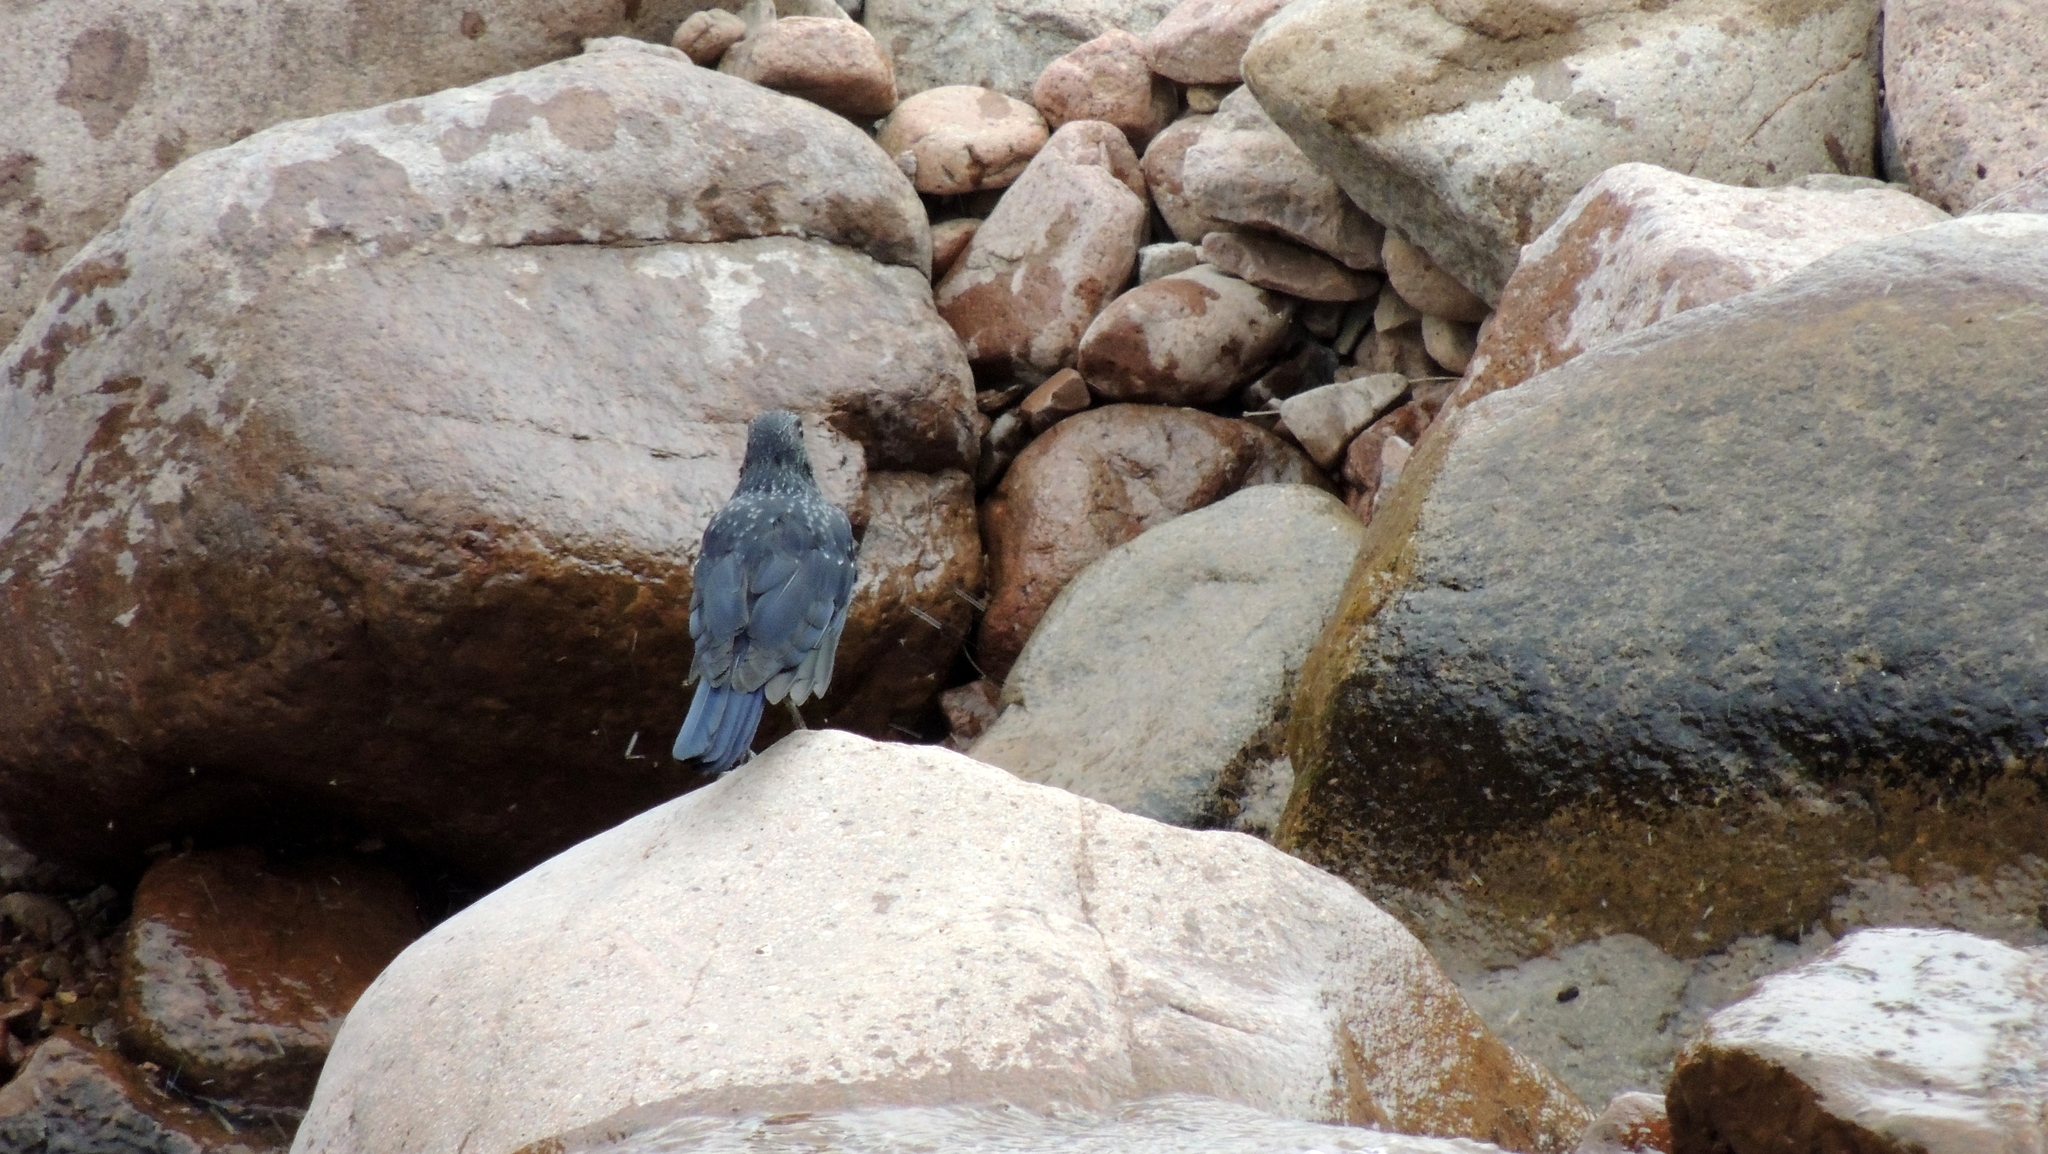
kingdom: Animalia
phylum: Chordata
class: Aves
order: Passeriformes
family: Muscicapidae
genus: Myophonus
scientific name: Myophonus caeruleus
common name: Blue whistling-thrush
